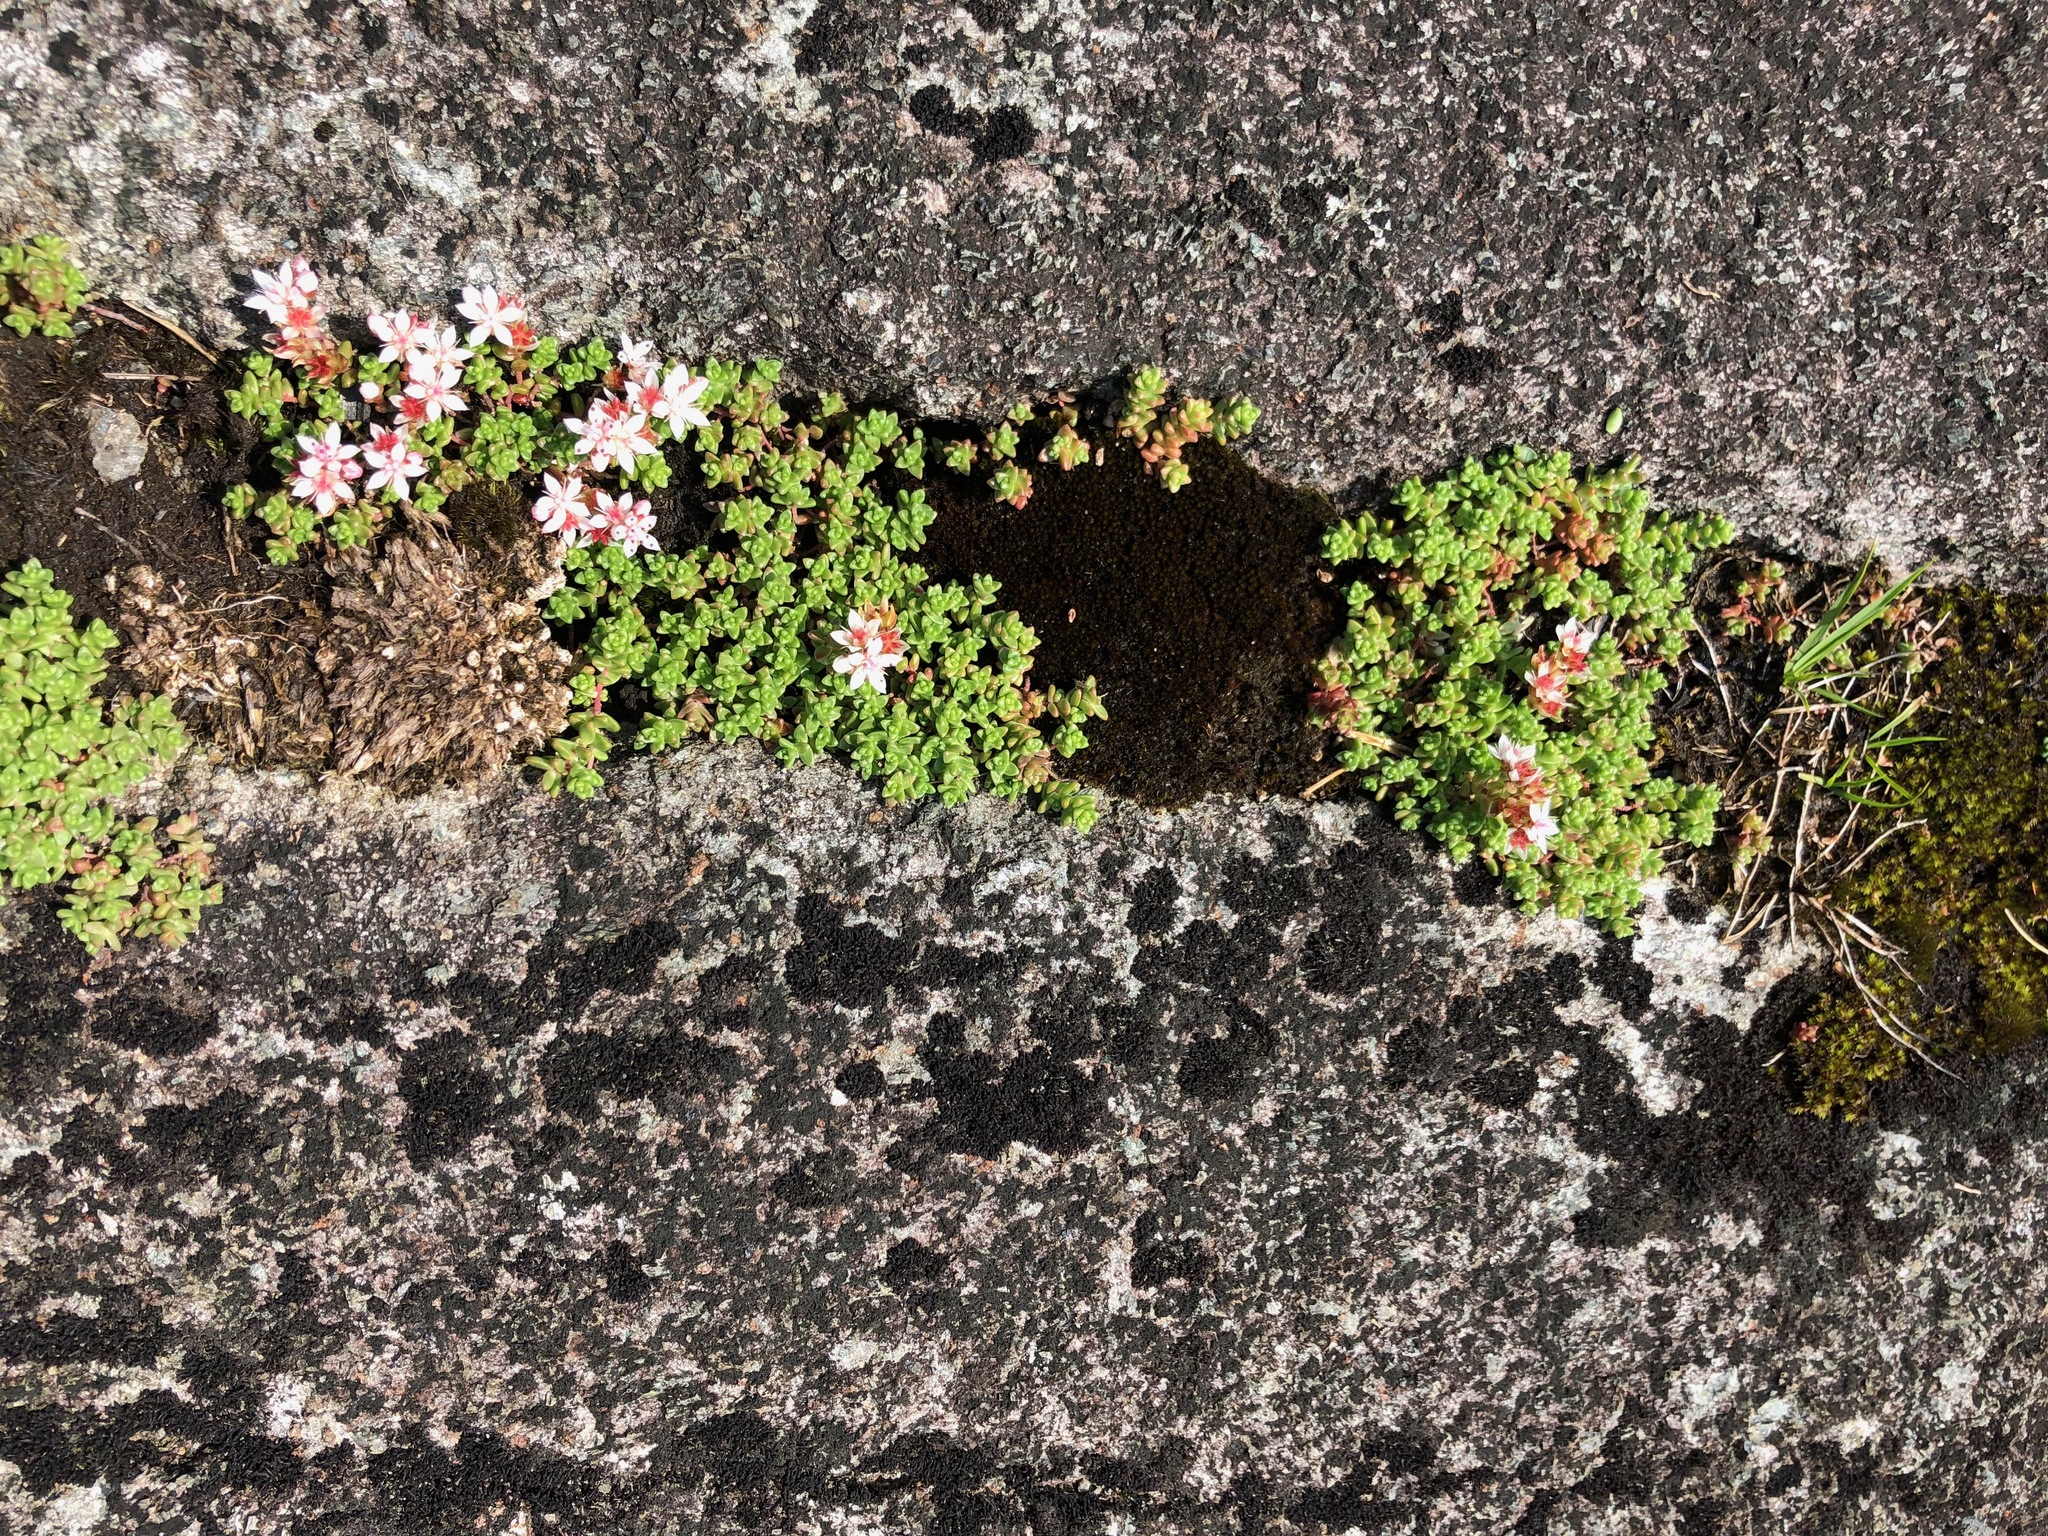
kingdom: Plantae
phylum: Tracheophyta
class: Magnoliopsida
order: Saxifragales
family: Crassulaceae
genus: Sedum
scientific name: Sedum anglicum
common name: English stonecrop
